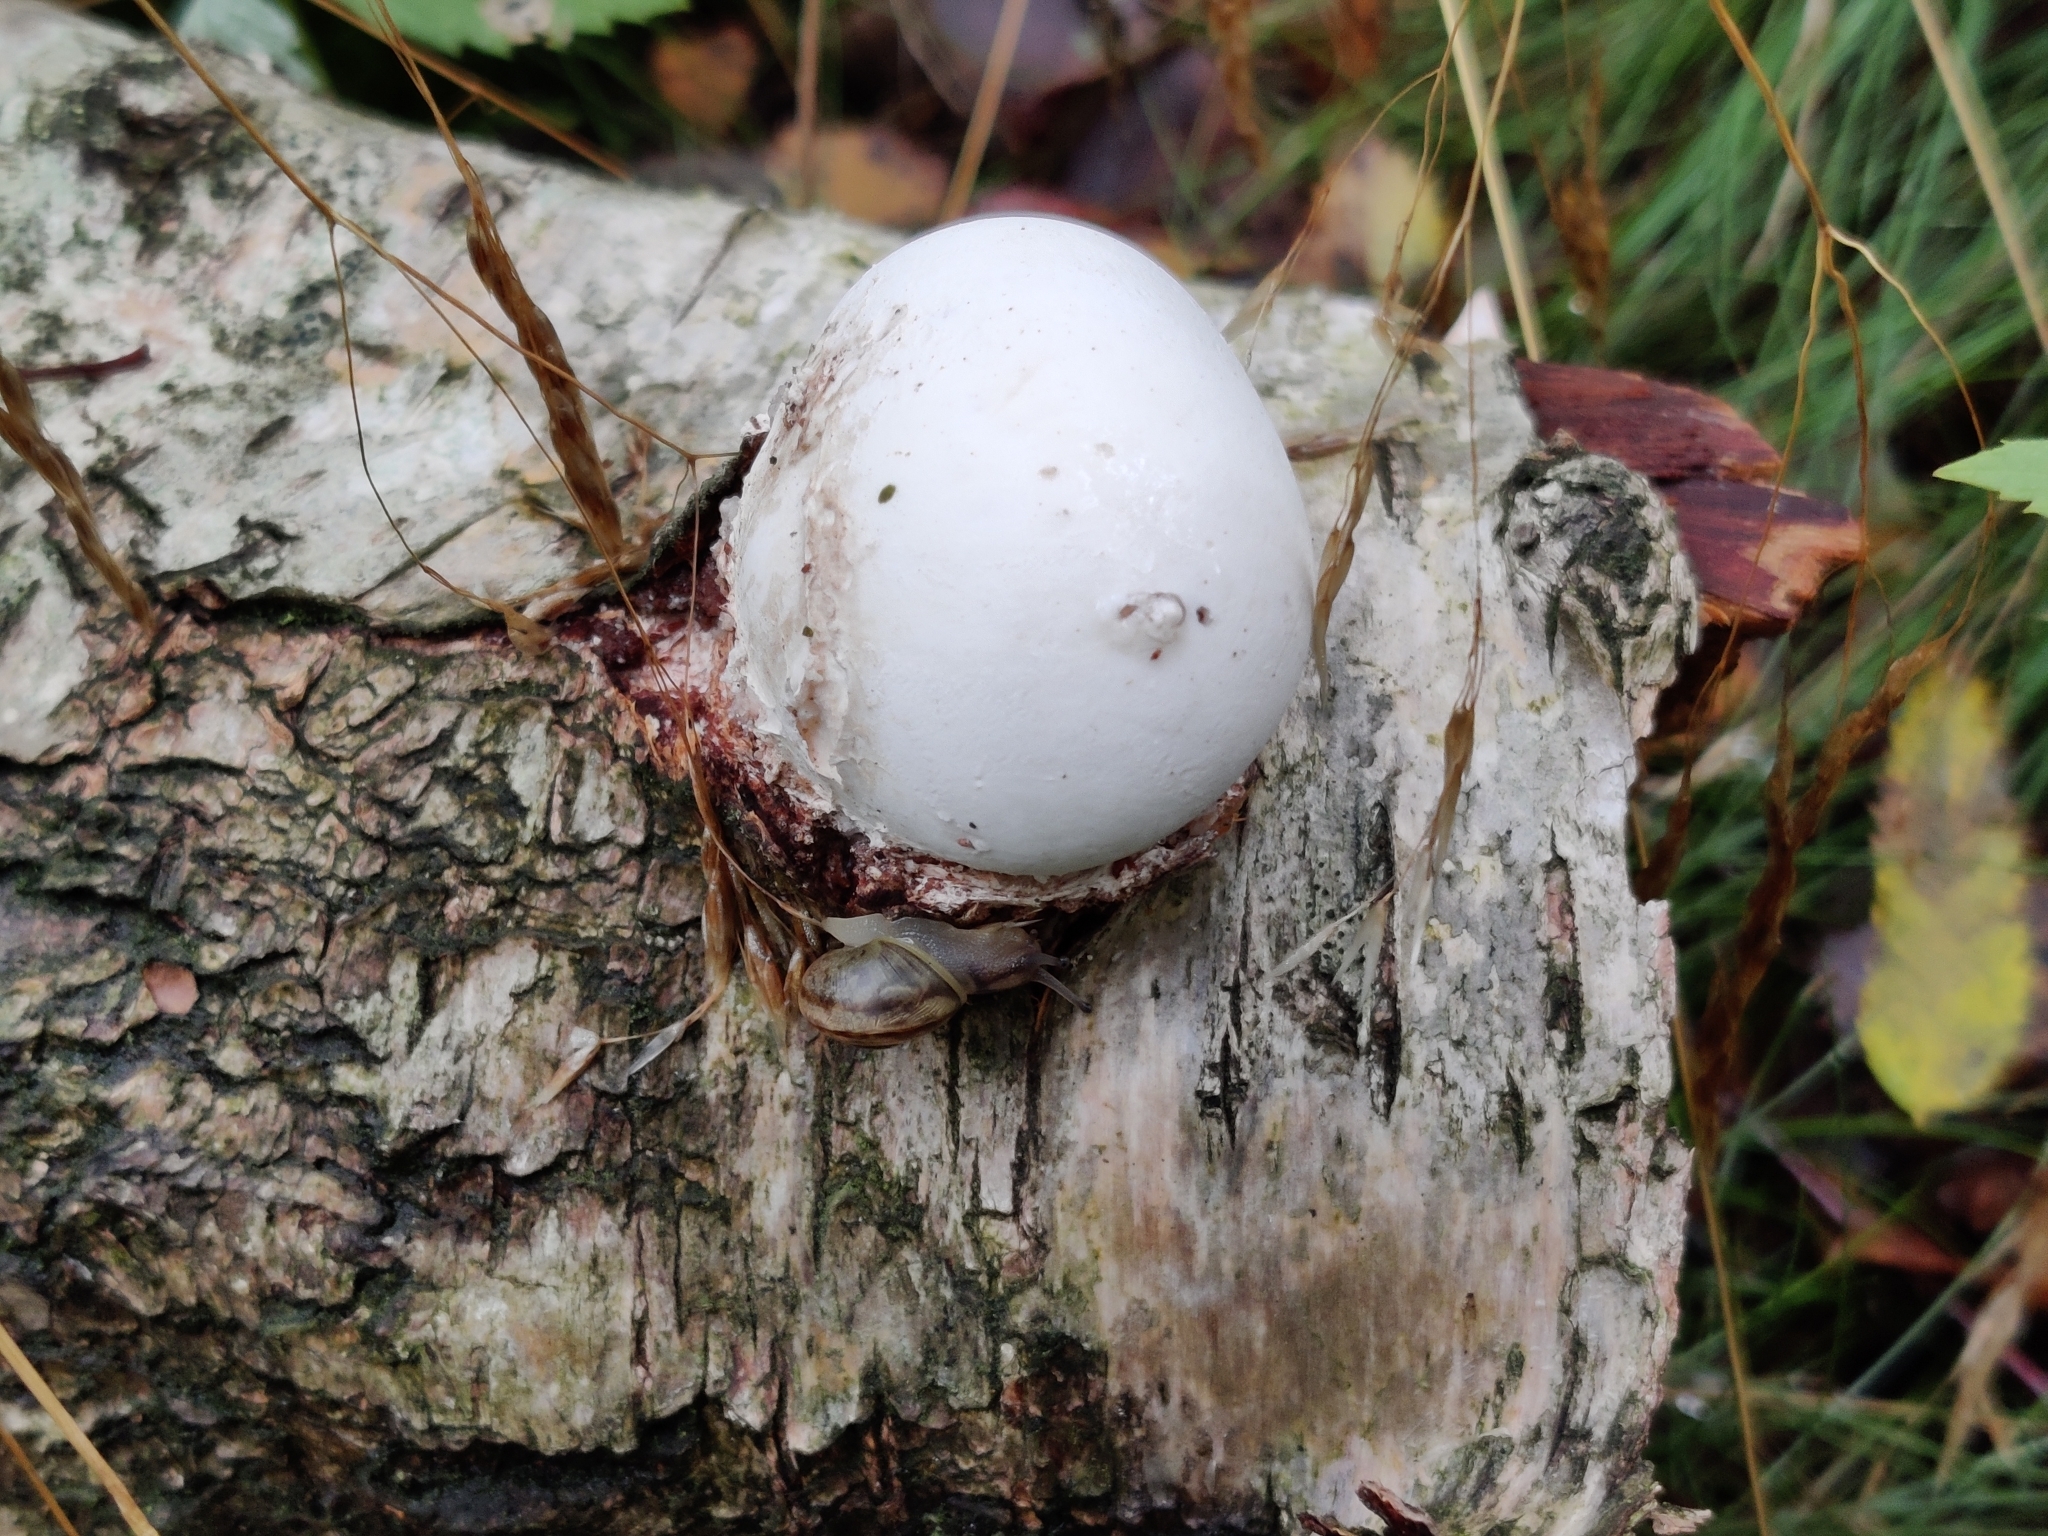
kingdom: Fungi
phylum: Basidiomycota
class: Agaricomycetes
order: Polyporales
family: Fomitopsidaceae
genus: Fomitopsis
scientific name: Fomitopsis betulina
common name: Birch polypore
